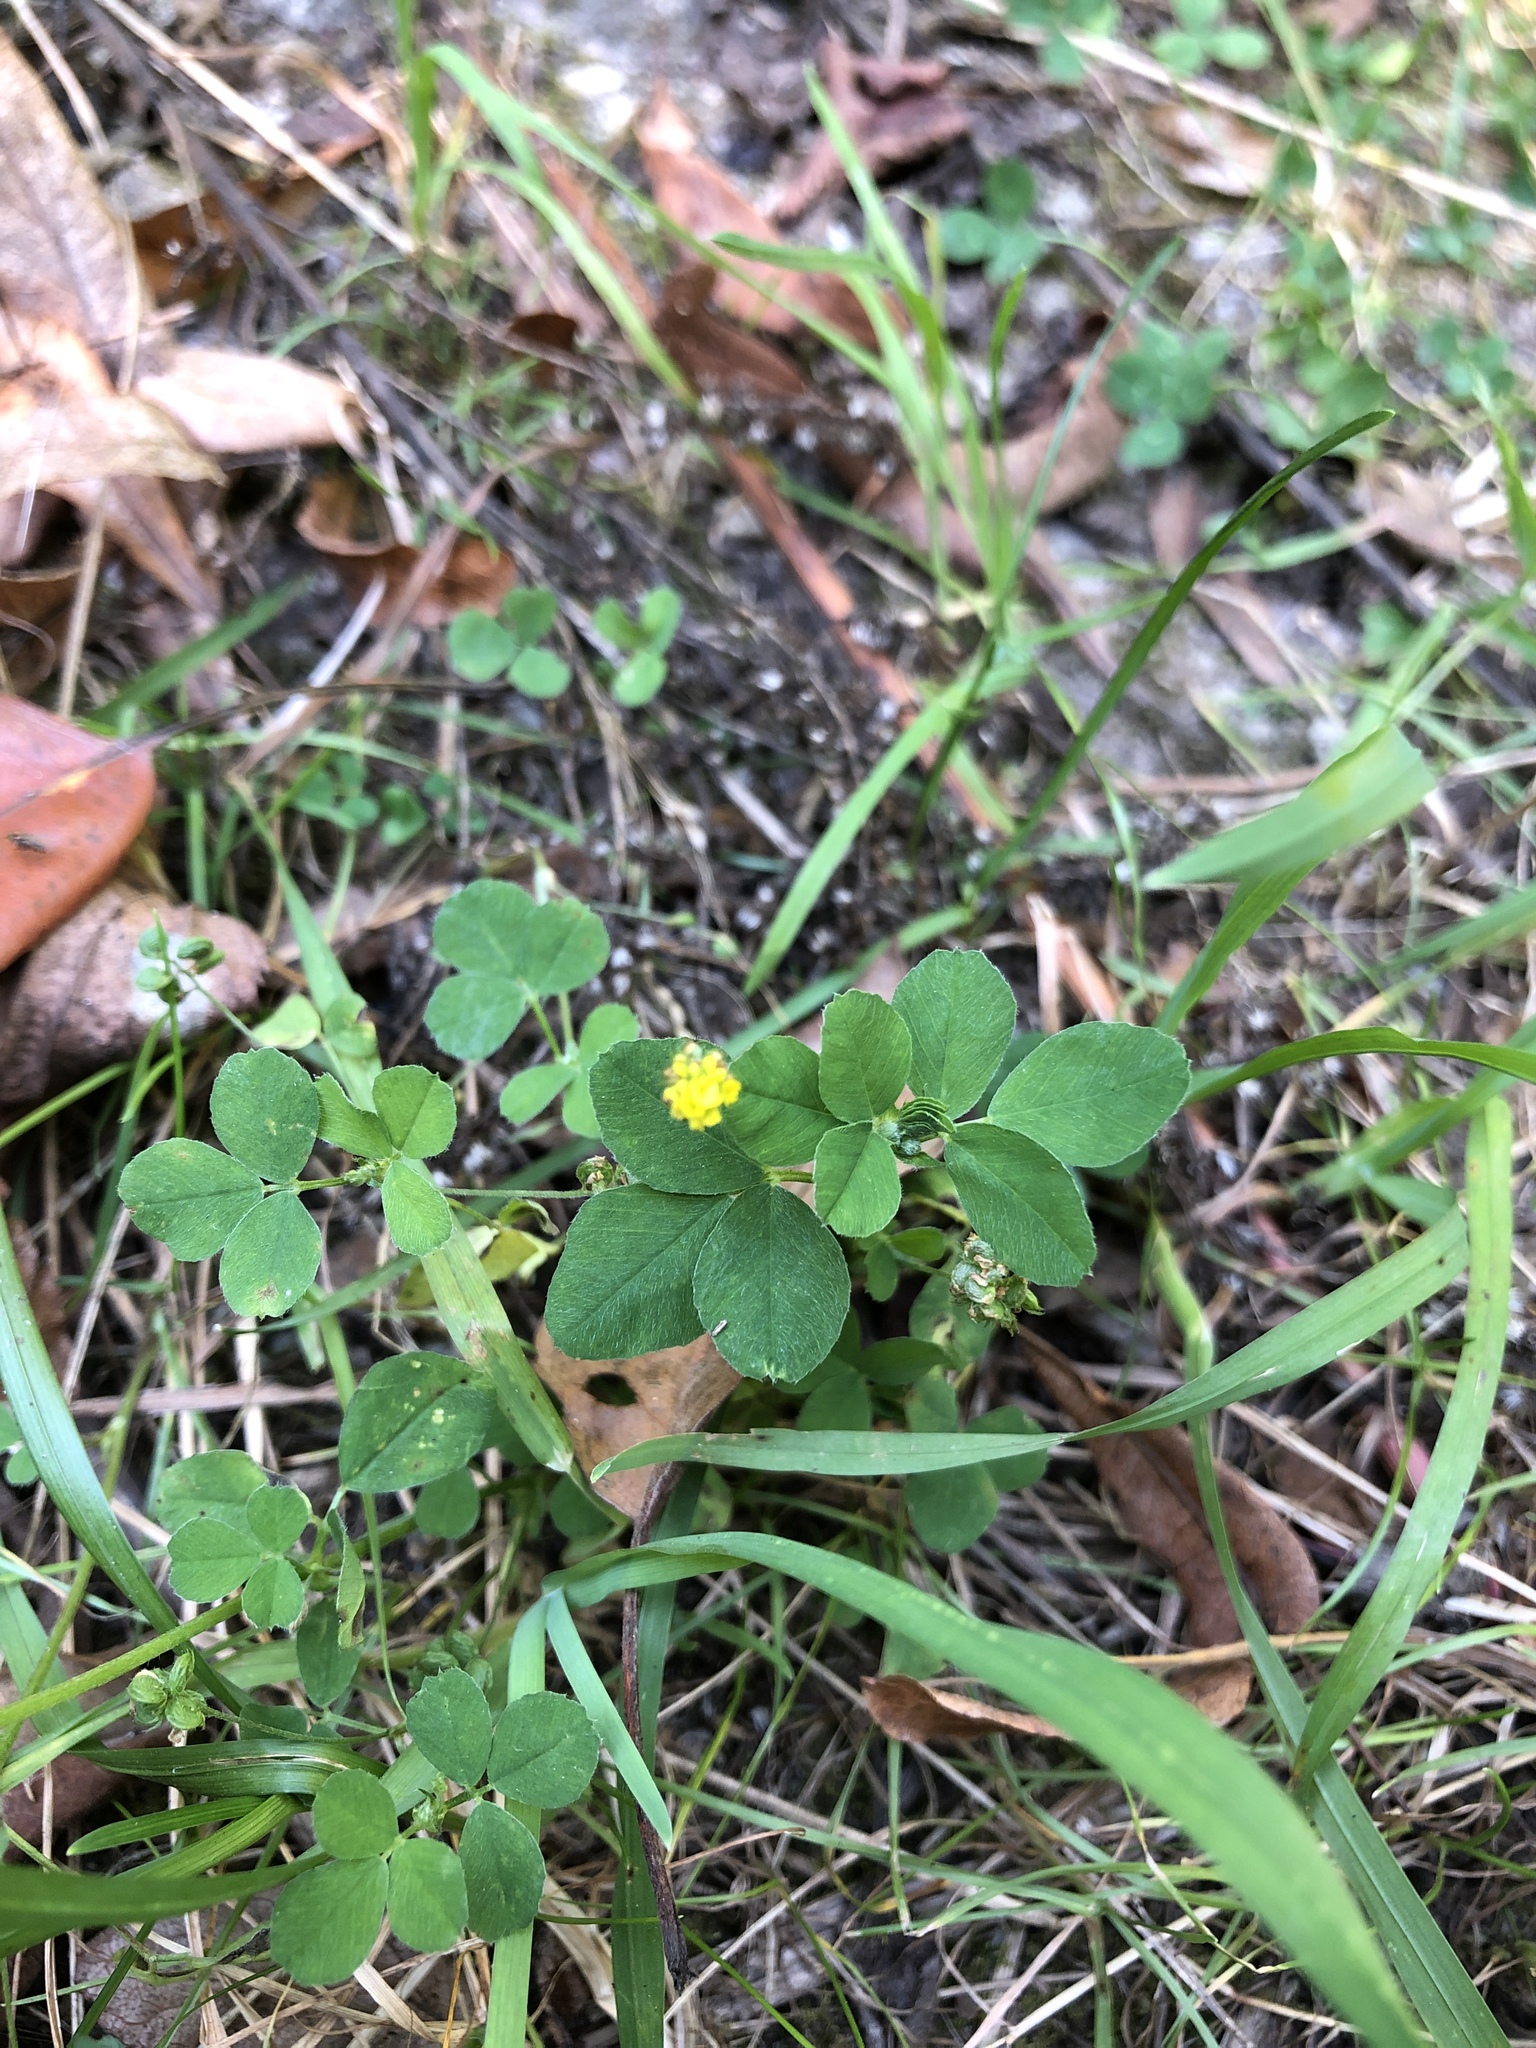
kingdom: Plantae
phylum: Tracheophyta
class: Magnoliopsida
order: Fabales
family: Fabaceae
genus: Medicago
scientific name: Medicago lupulina
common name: Black medick
